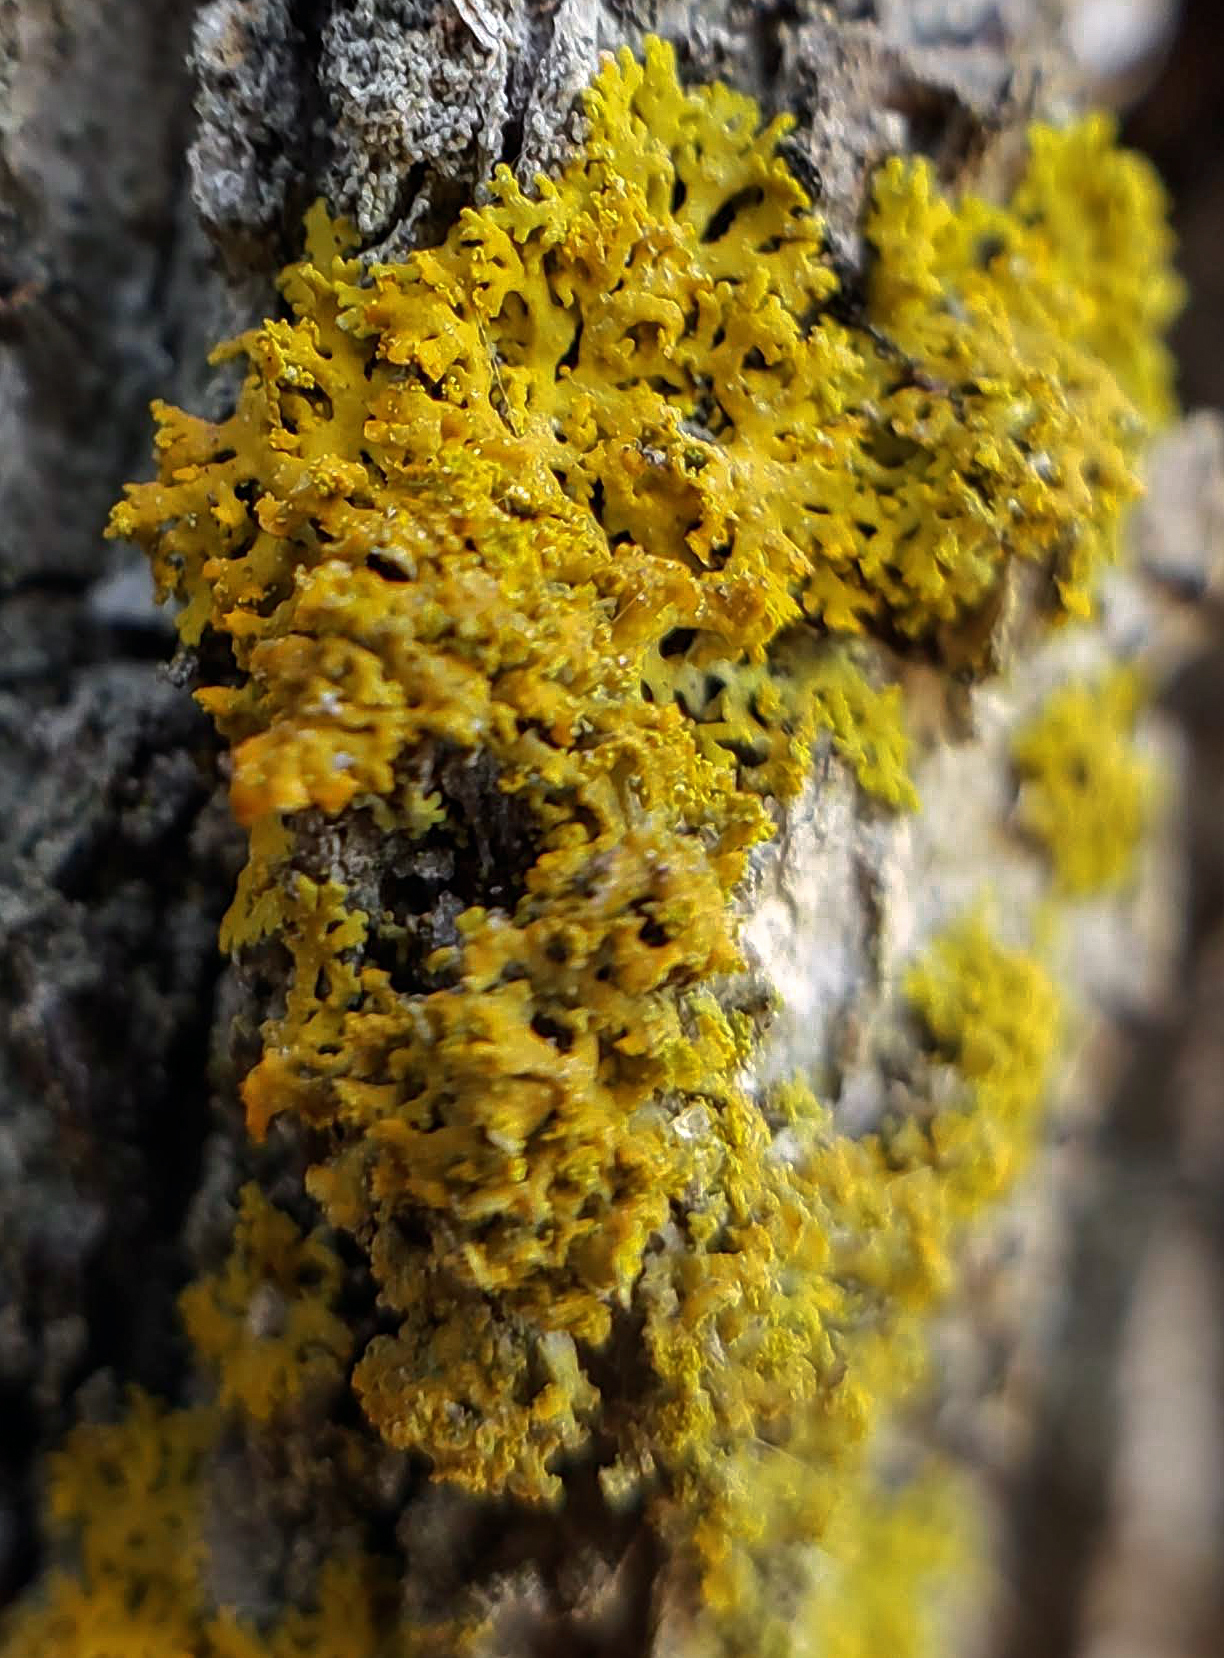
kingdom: Fungi
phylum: Ascomycota
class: Lecanoromycetes
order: Teloschistales
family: Teloschistaceae
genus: Gallowayella
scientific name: Gallowayella weberi
